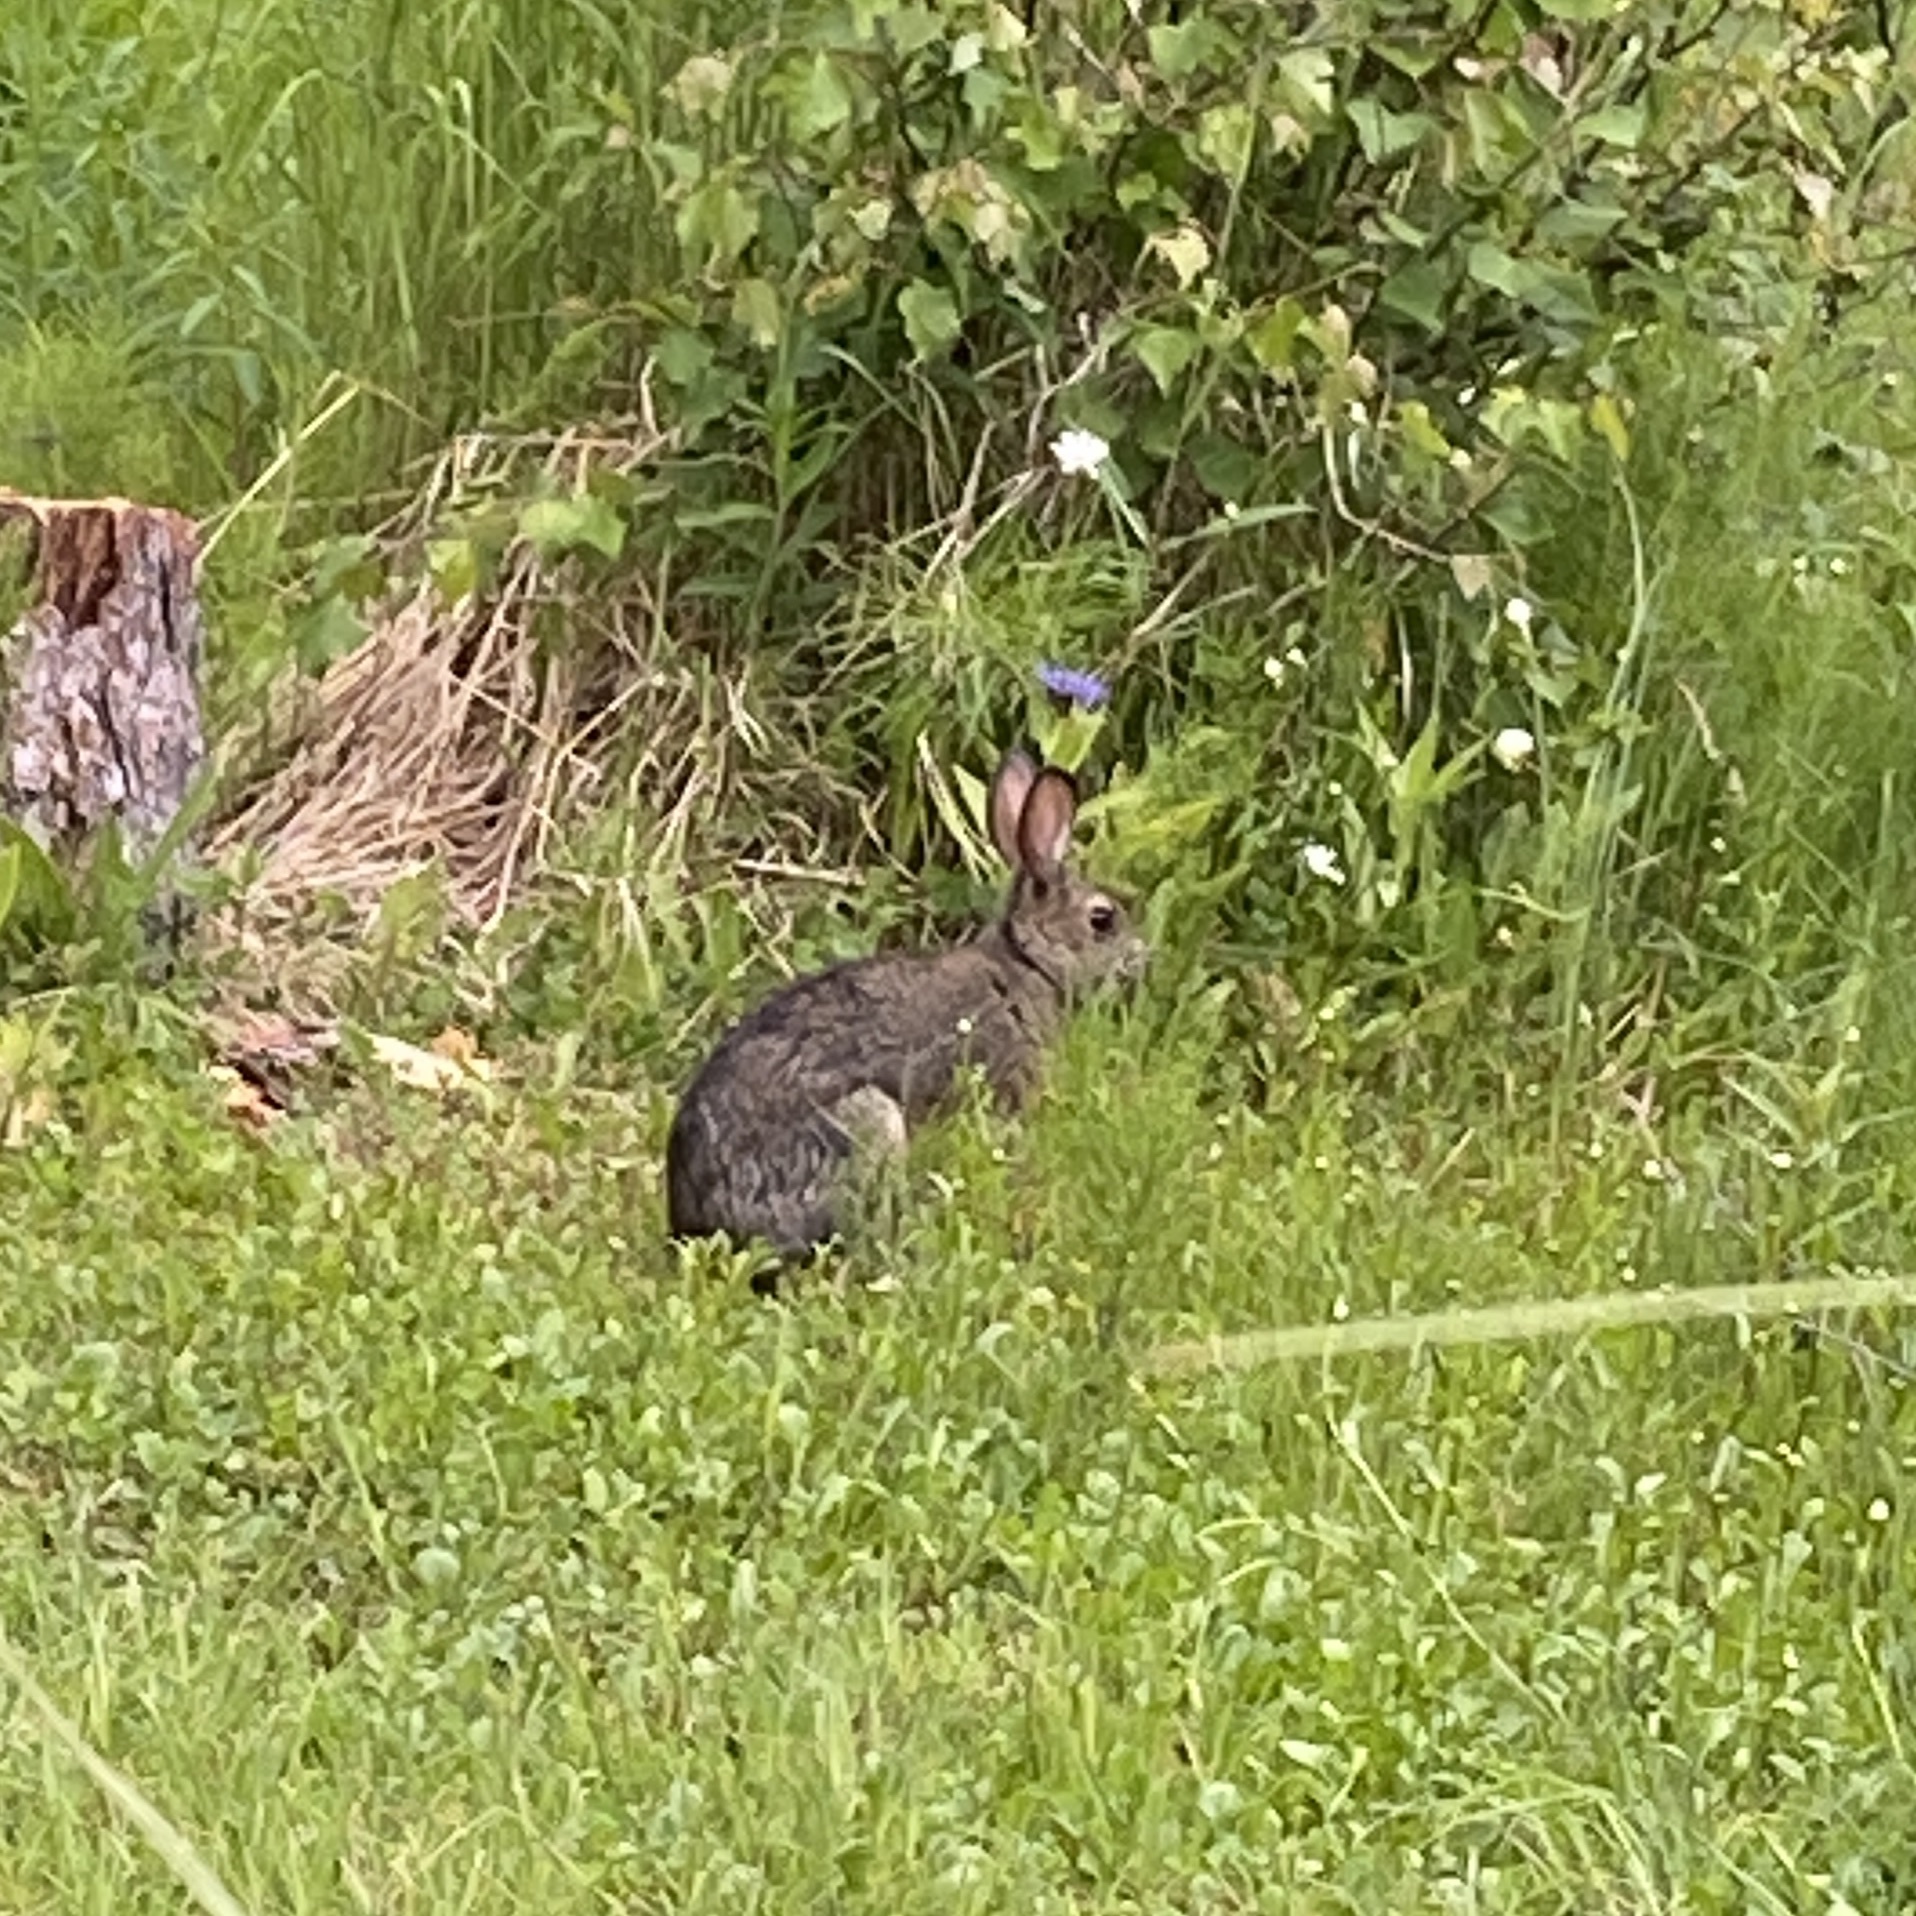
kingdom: Animalia
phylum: Chordata
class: Mammalia
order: Lagomorpha
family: Leporidae
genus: Lepus
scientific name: Lepus americanus
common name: Snowshoe hare
